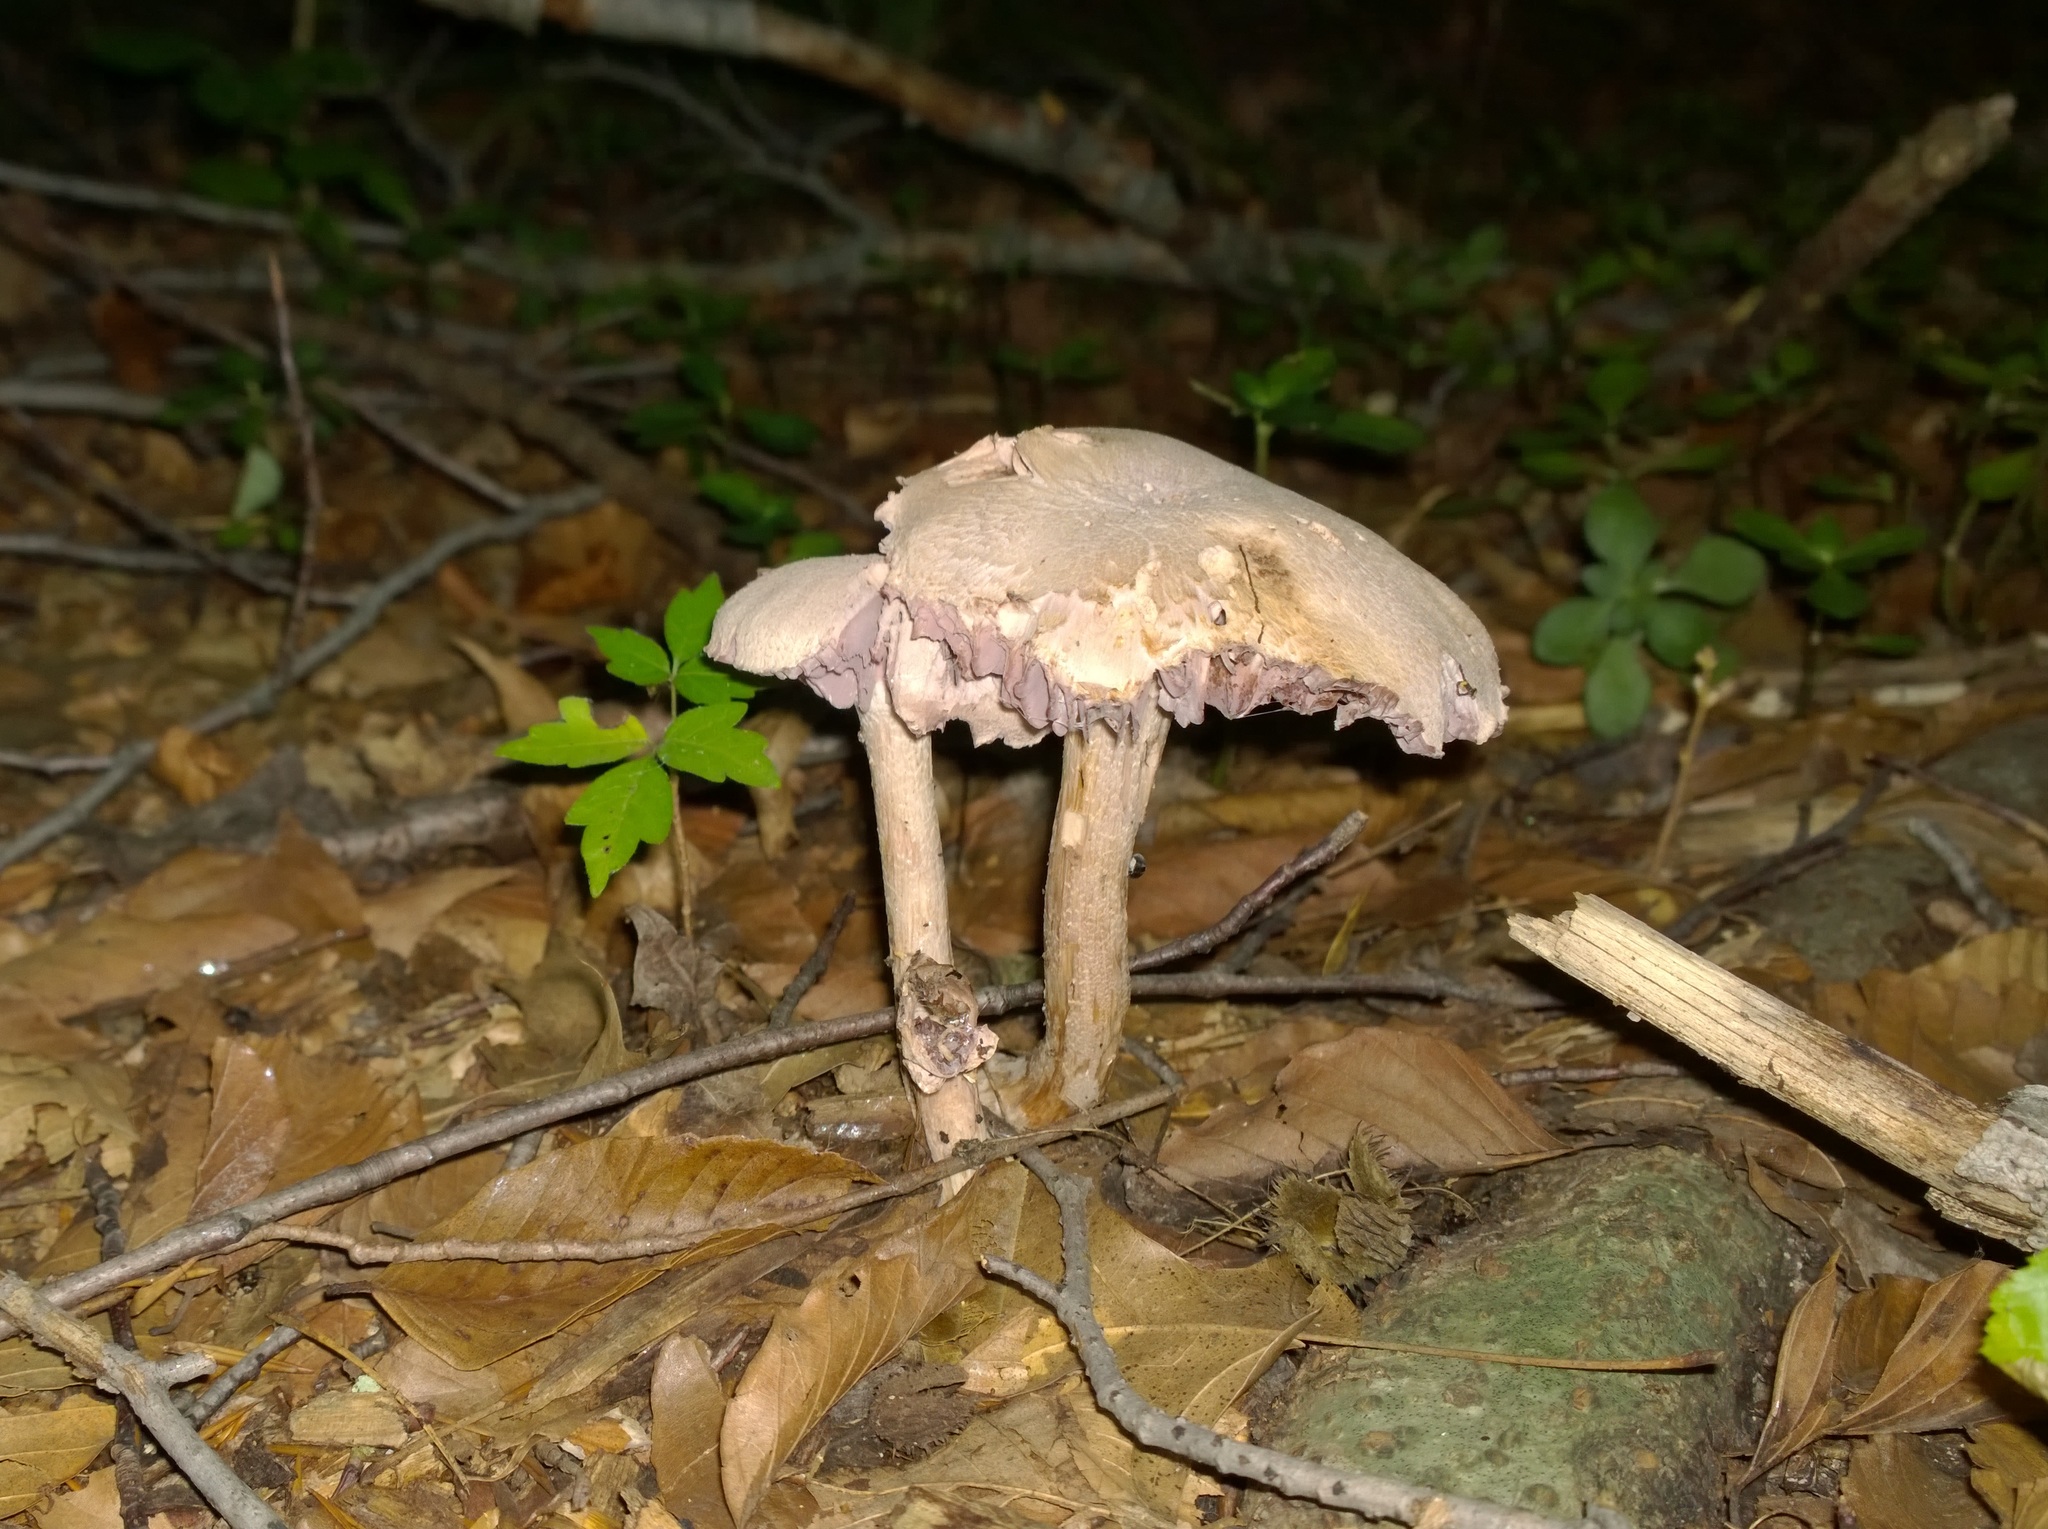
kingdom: Fungi
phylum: Basidiomycota
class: Agaricomycetes
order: Agaricales
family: Hydnangiaceae
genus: Laccaria
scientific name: Laccaria ochropurpurea
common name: Purple laccaria
